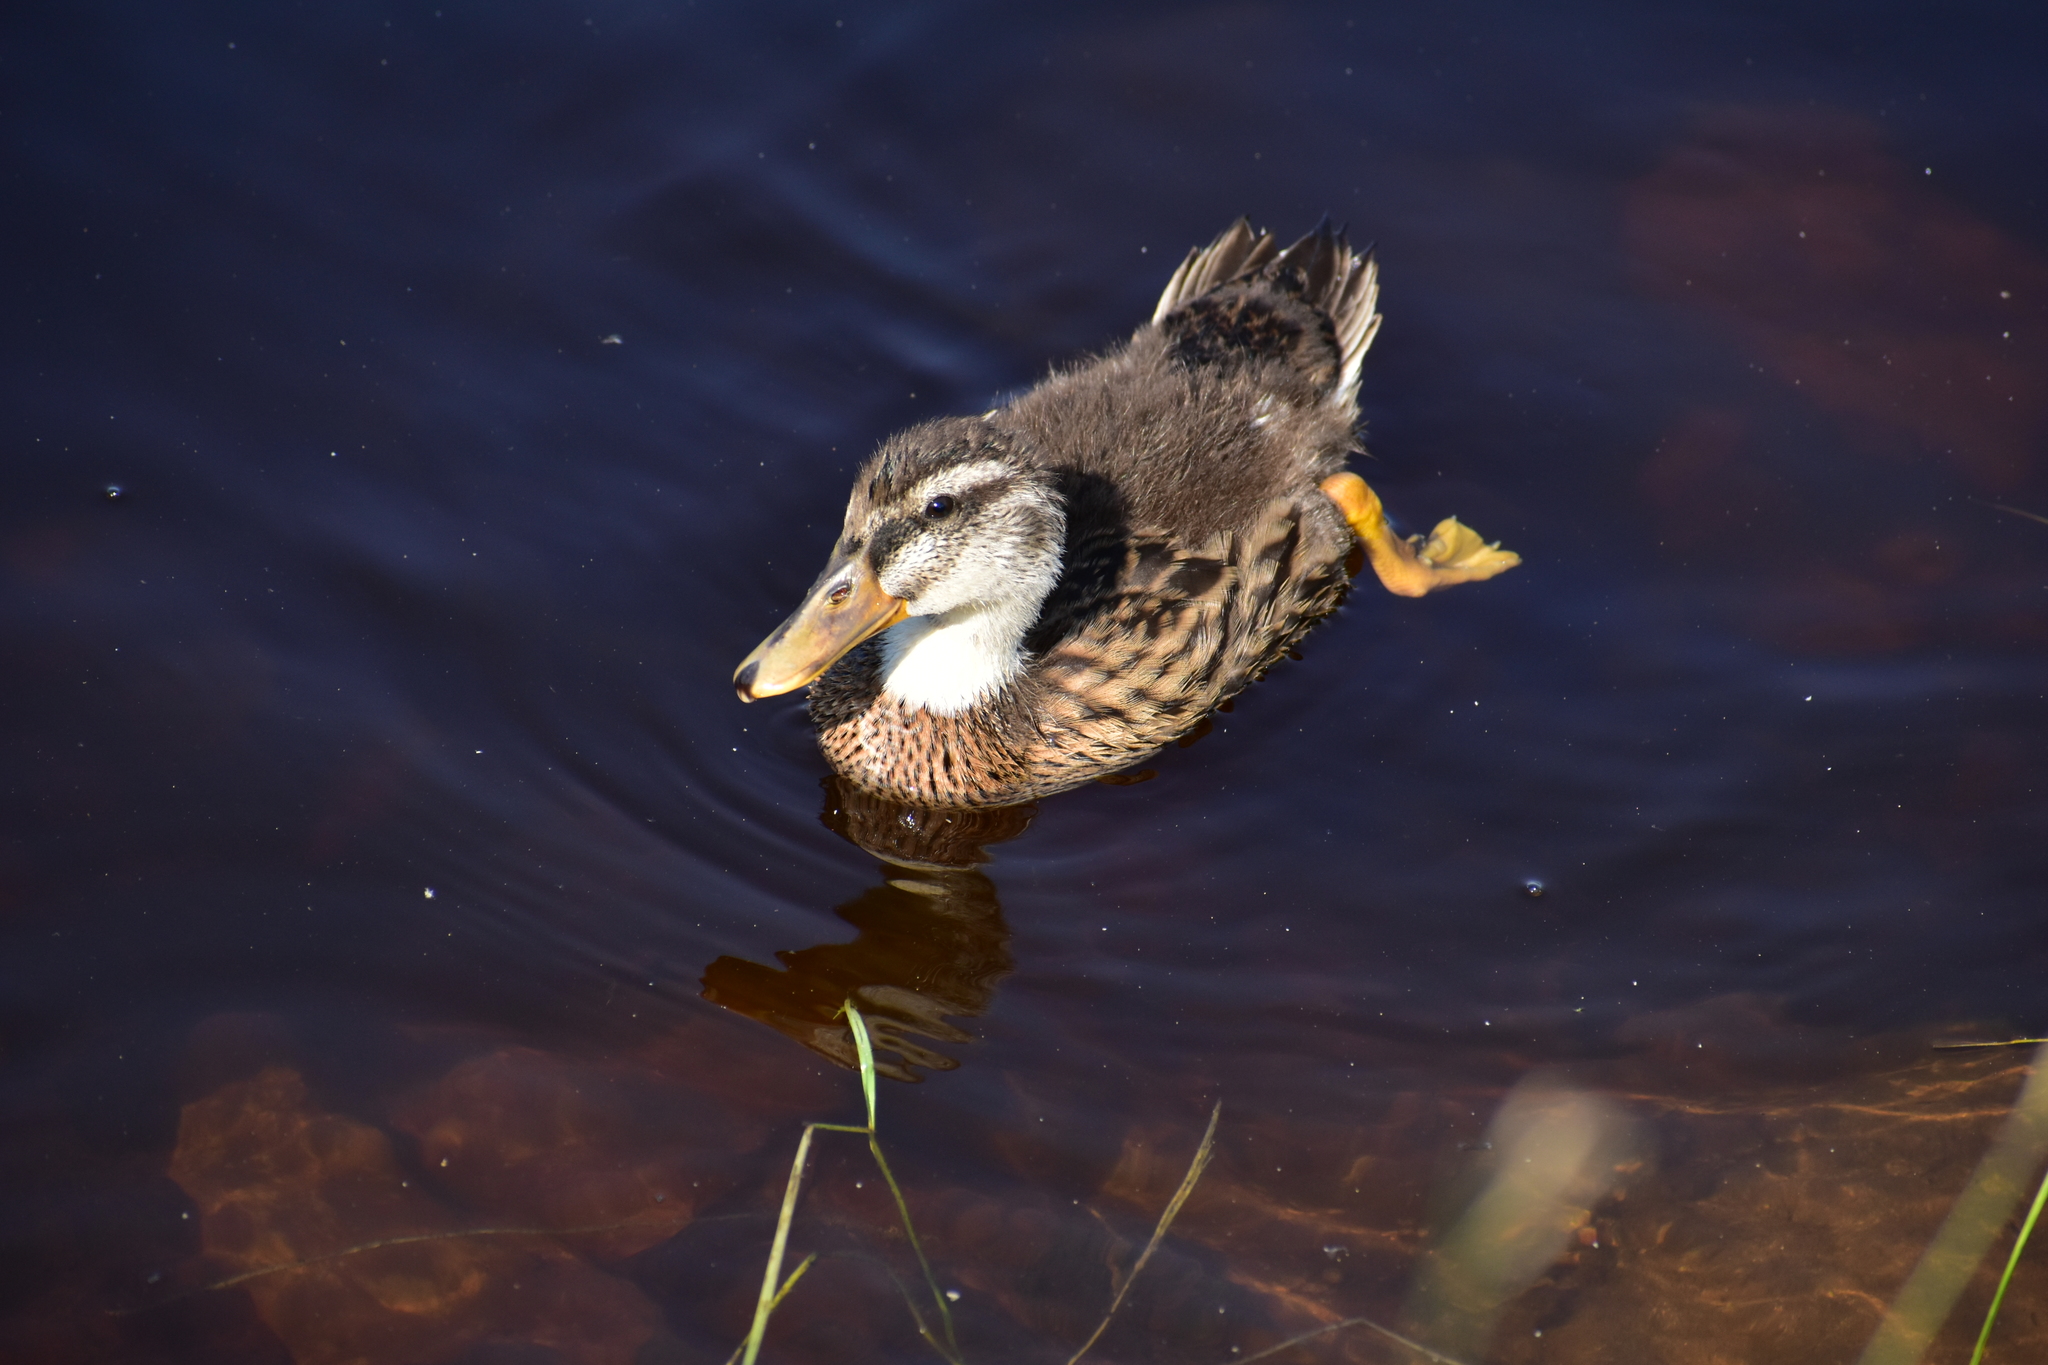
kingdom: Animalia
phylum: Chordata
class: Aves
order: Anseriformes
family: Anatidae
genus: Anas
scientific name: Anas platyrhynchos
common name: Mallard
